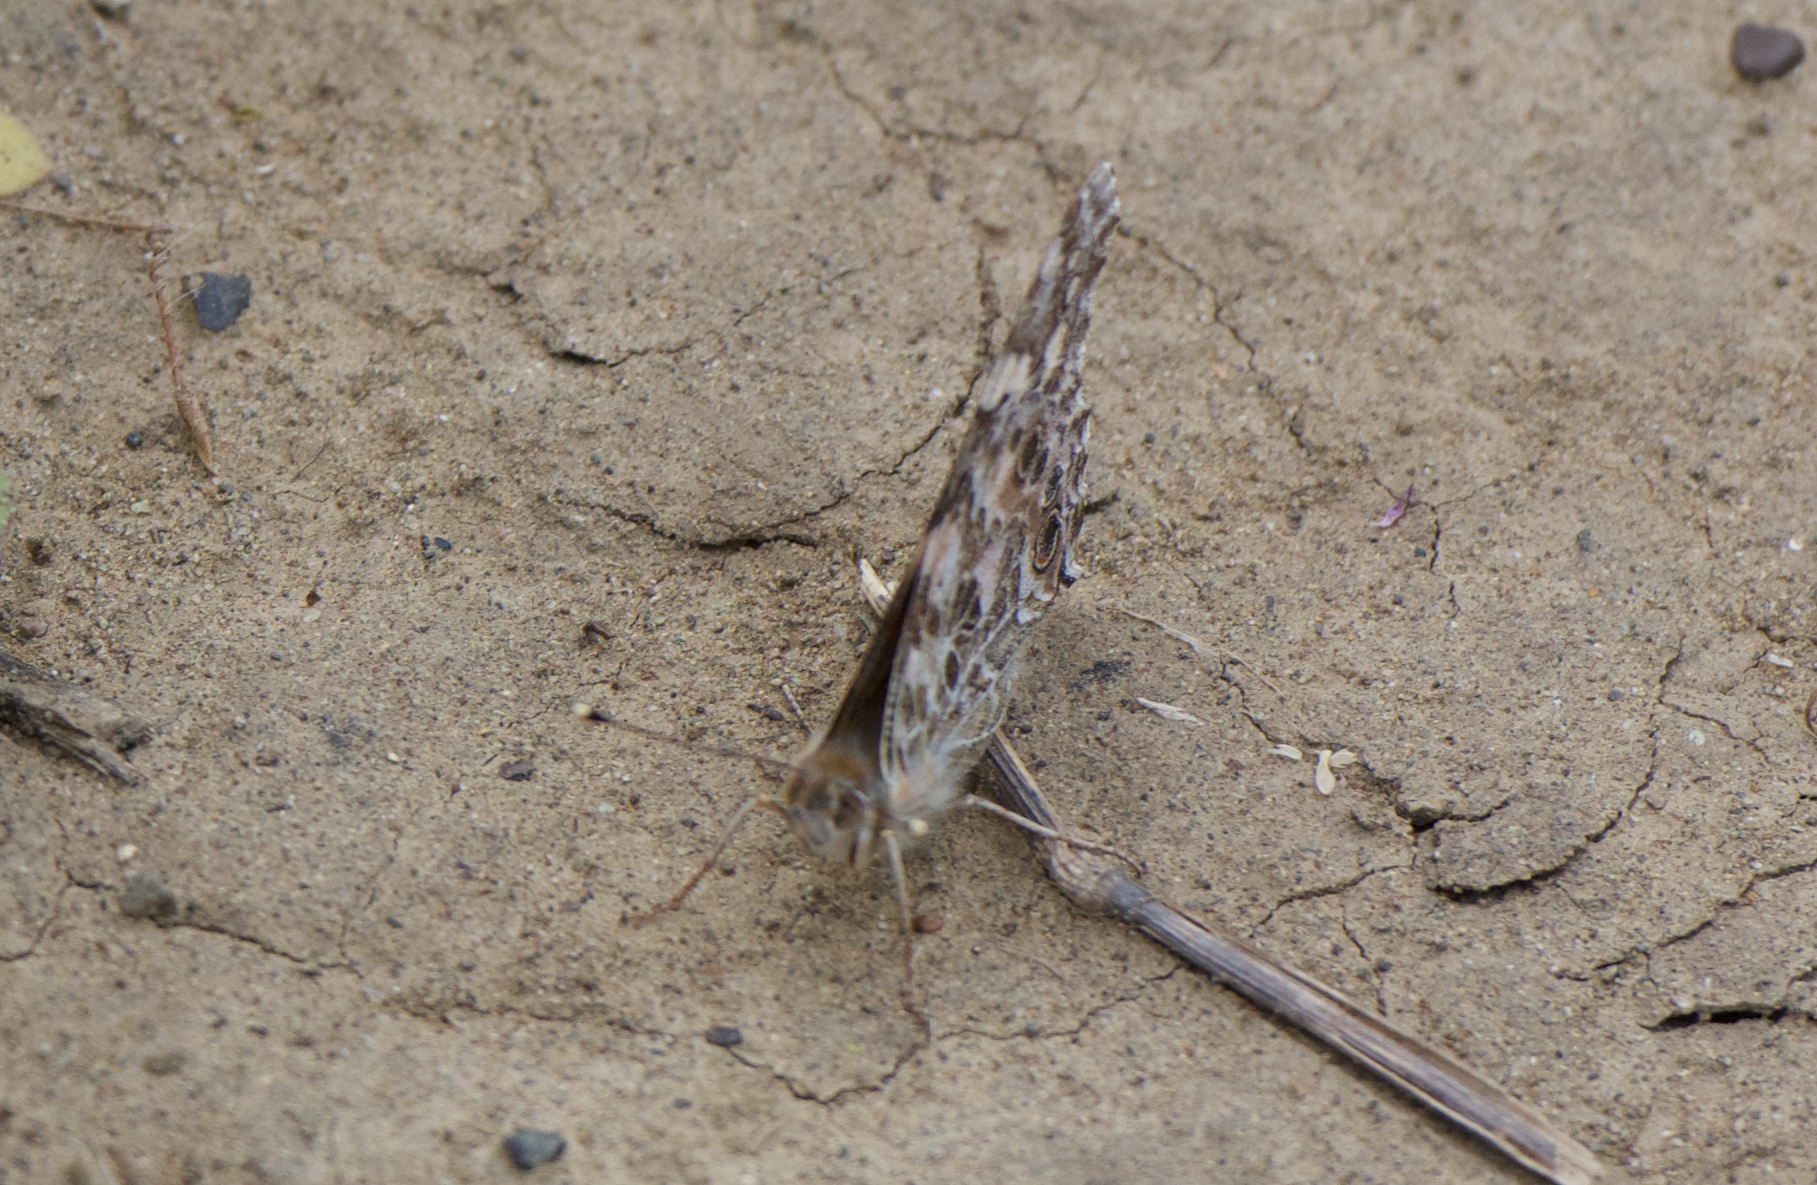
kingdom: Animalia
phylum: Arthropoda
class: Insecta
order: Lepidoptera
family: Nymphalidae
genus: Vanessa
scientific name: Vanessa cardui
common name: Painted lady
